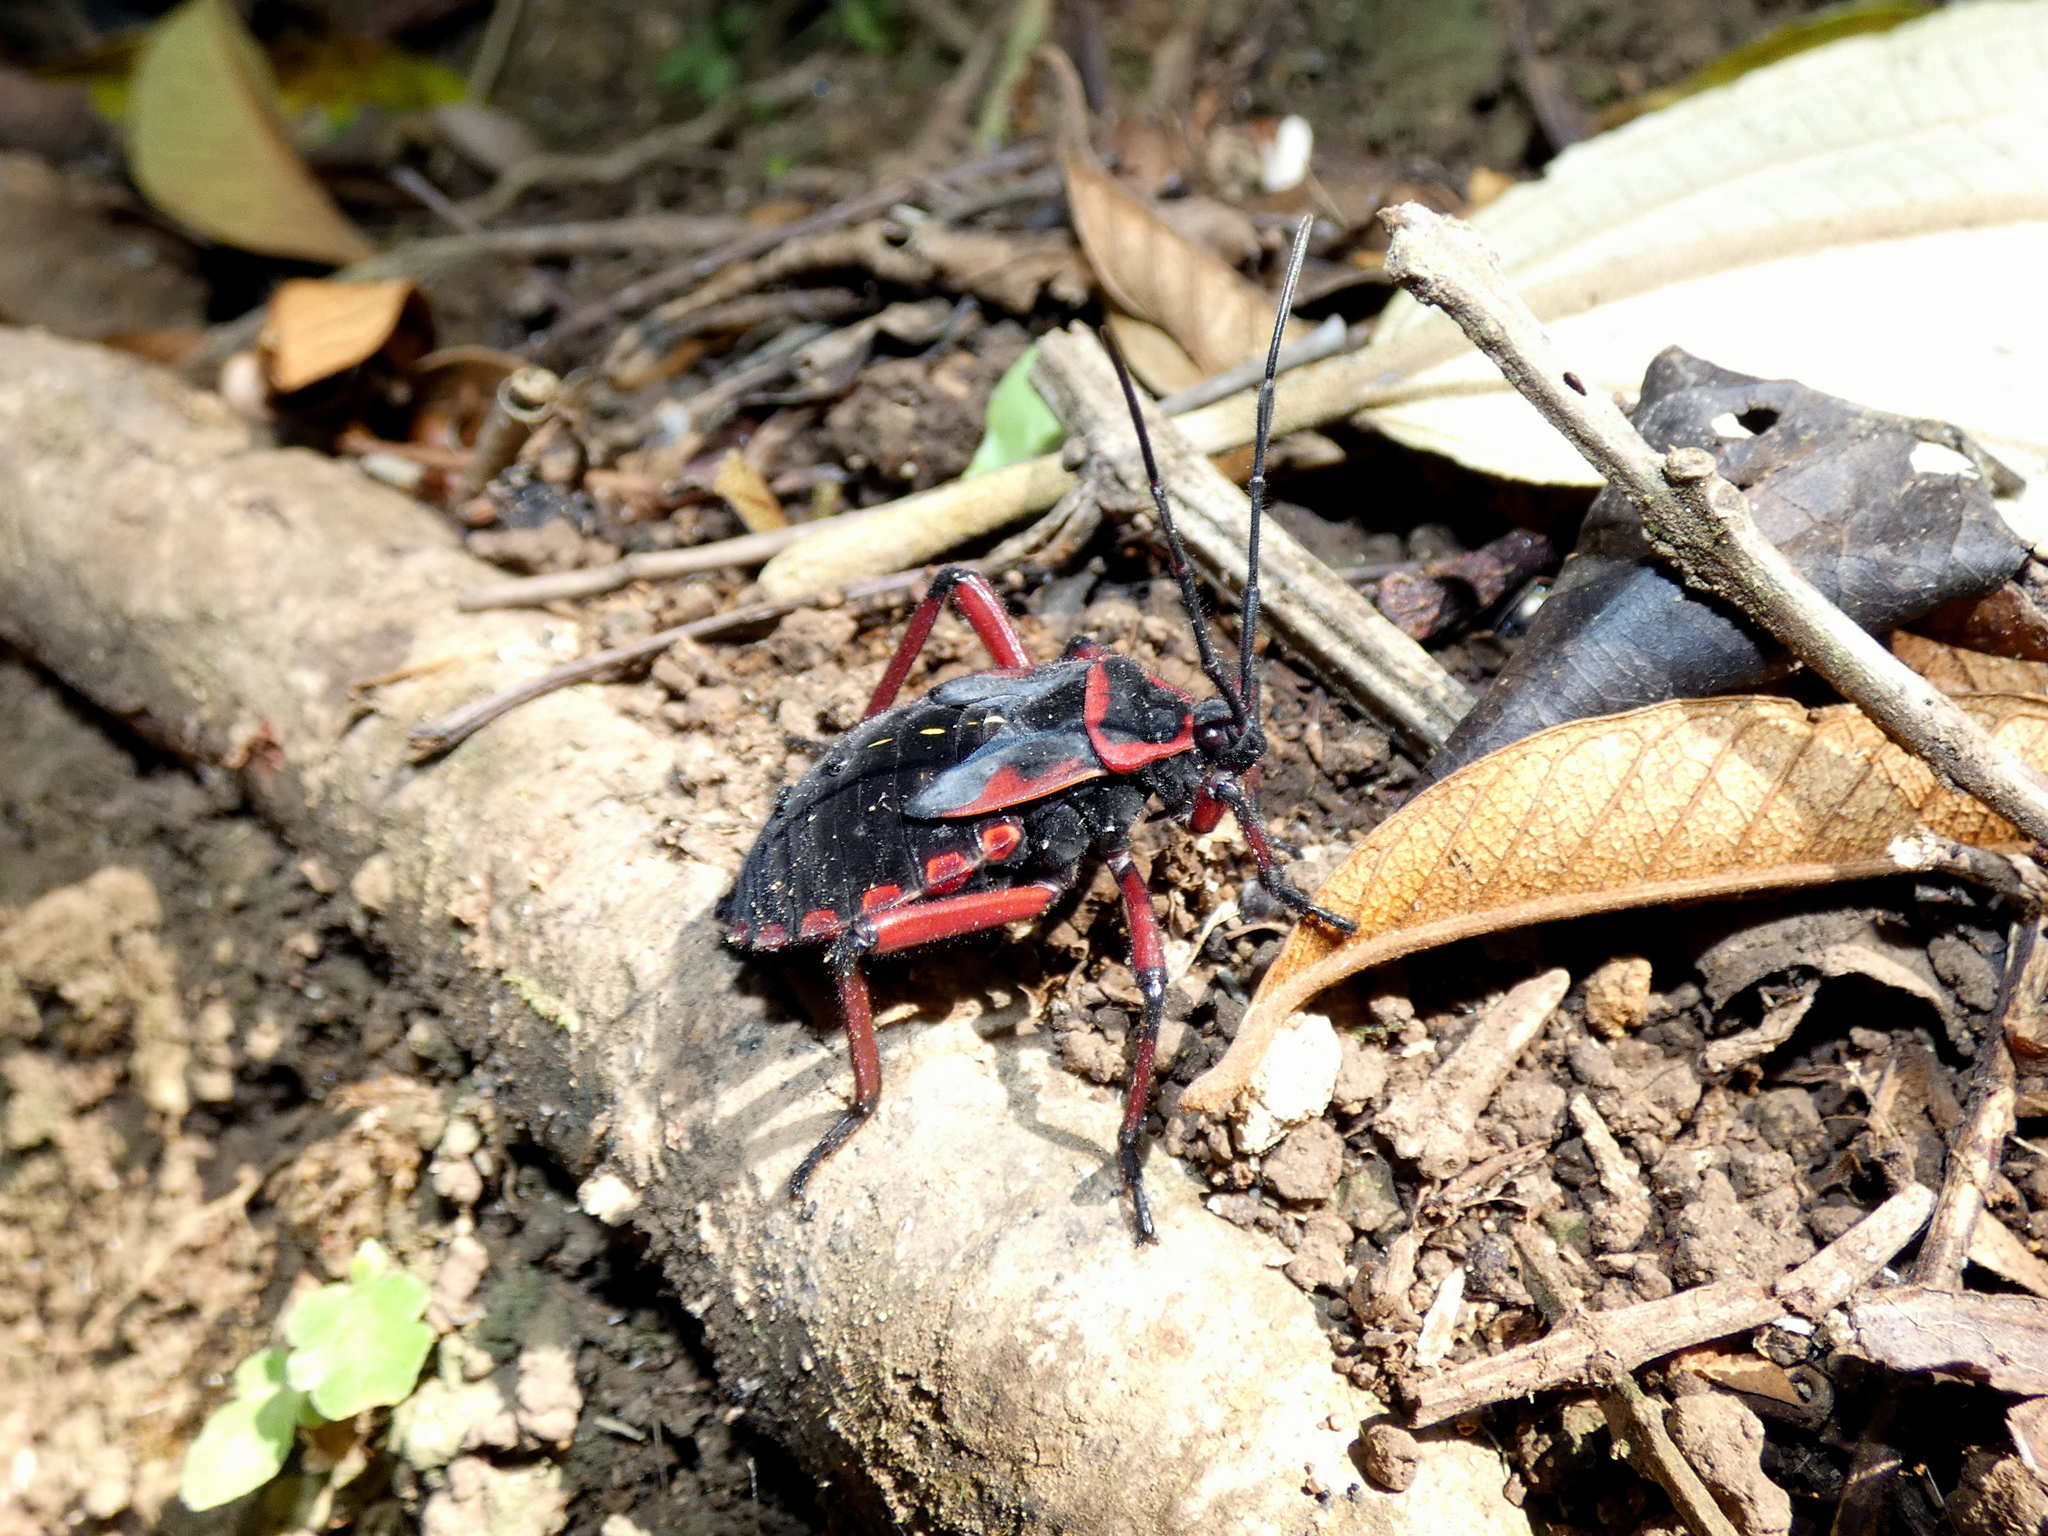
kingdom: Animalia
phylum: Arthropoda
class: Insecta
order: Hemiptera
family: Coreidae
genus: Pachylis
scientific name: Pachylis pharaonis
